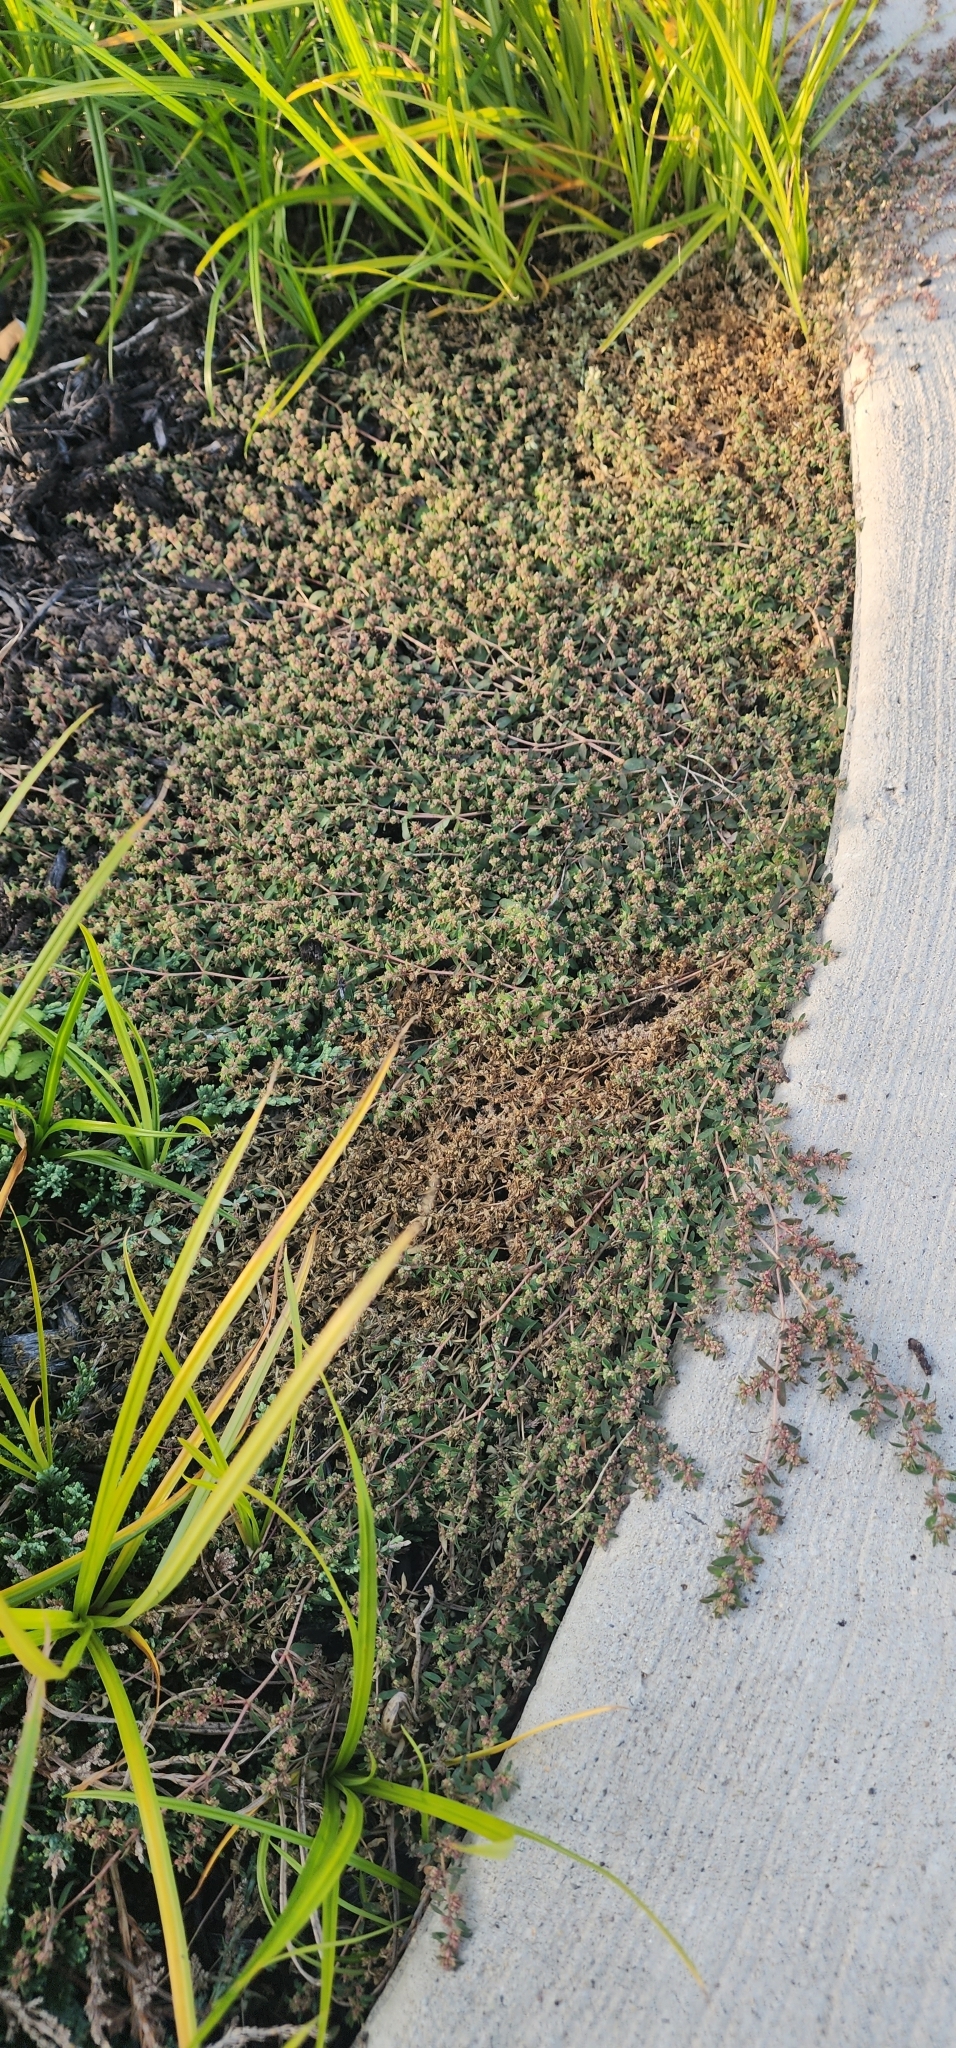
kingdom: Plantae
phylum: Tracheophyta
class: Magnoliopsida
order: Malpighiales
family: Euphorbiaceae
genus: Euphorbia
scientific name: Euphorbia maculata
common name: Spotted spurge
